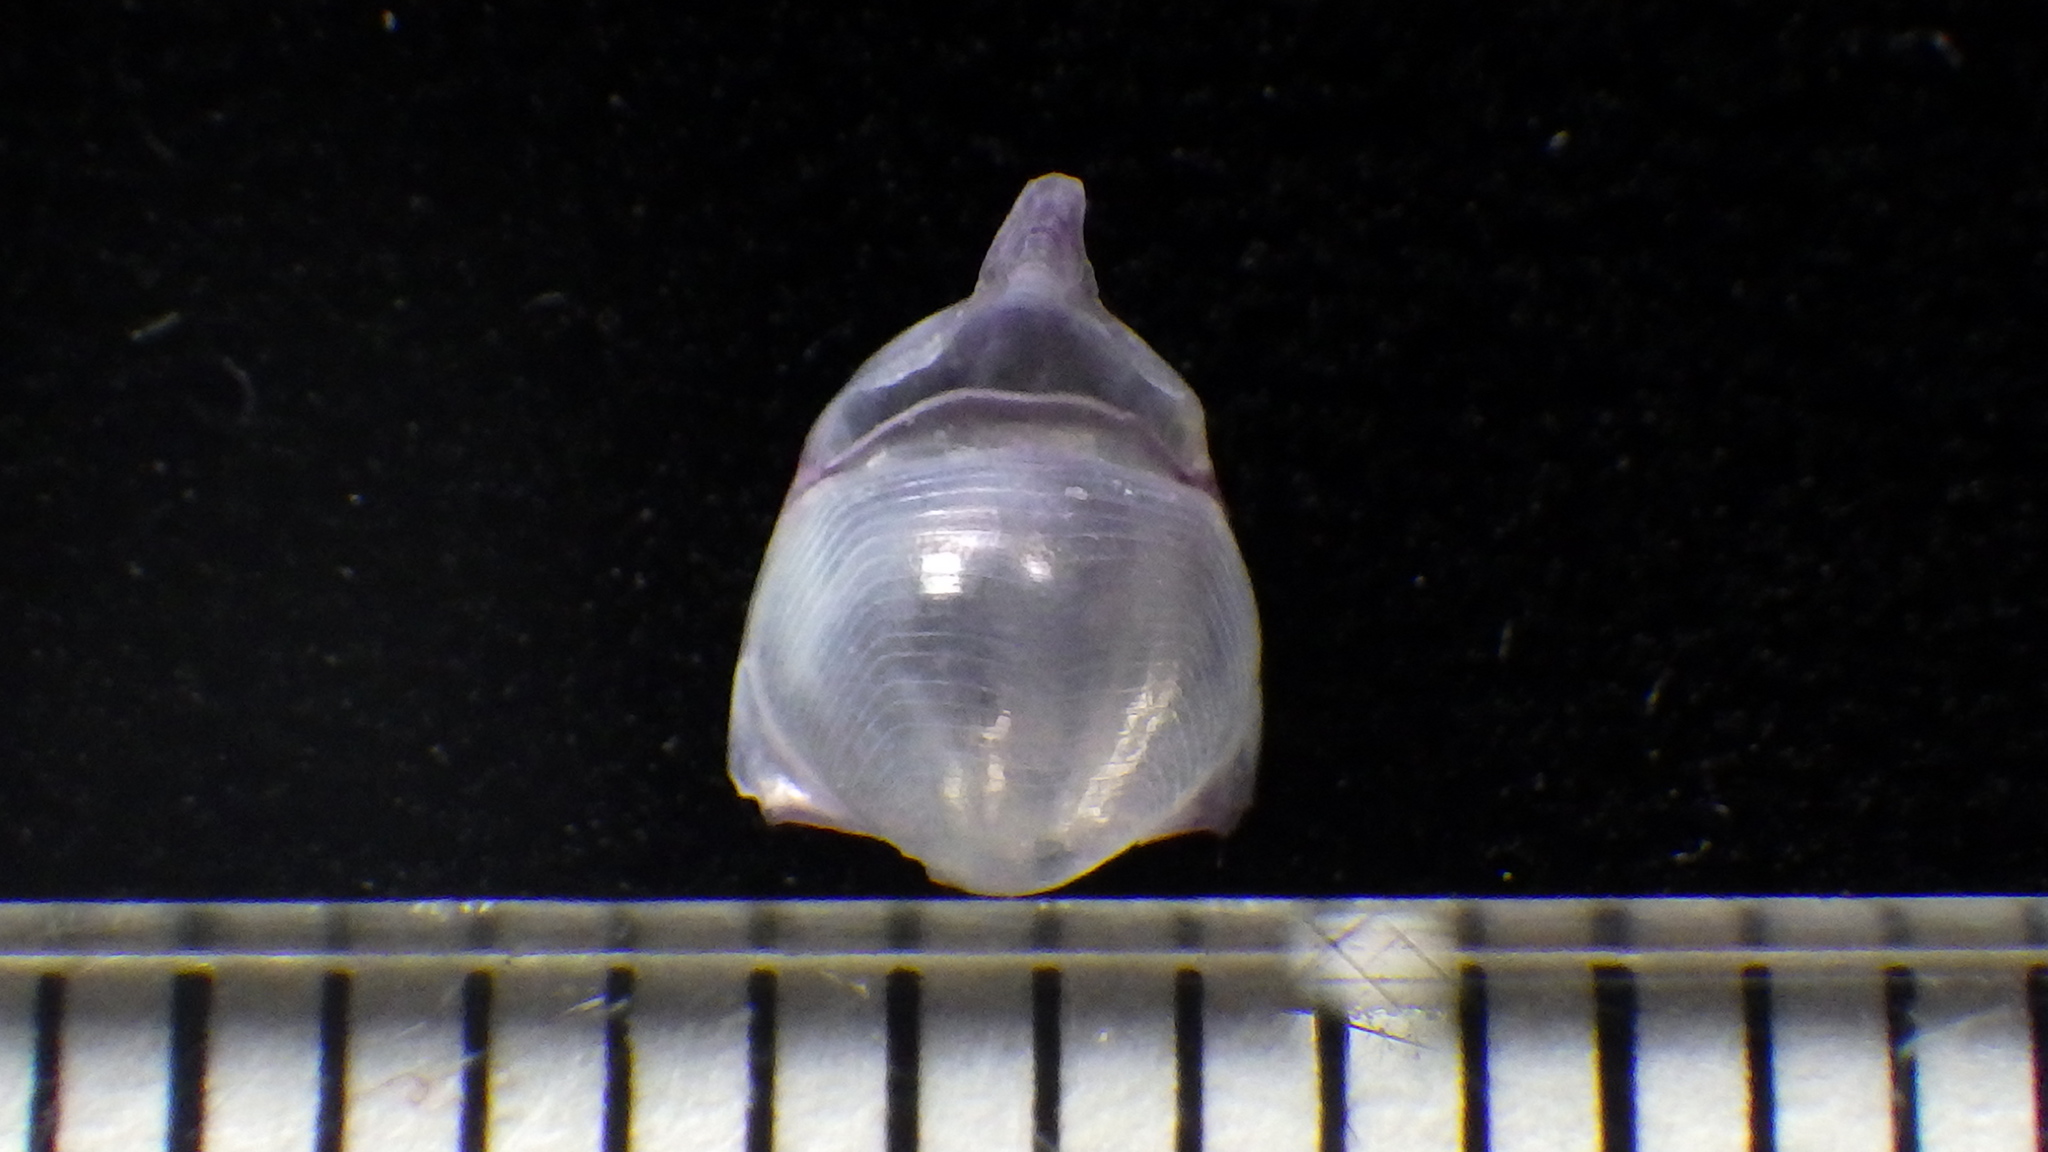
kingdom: Animalia
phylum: Mollusca
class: Gastropoda
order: Pteropoda
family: Cavoliniidae
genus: Diacavolinia
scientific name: Diacavolinia longirostris
